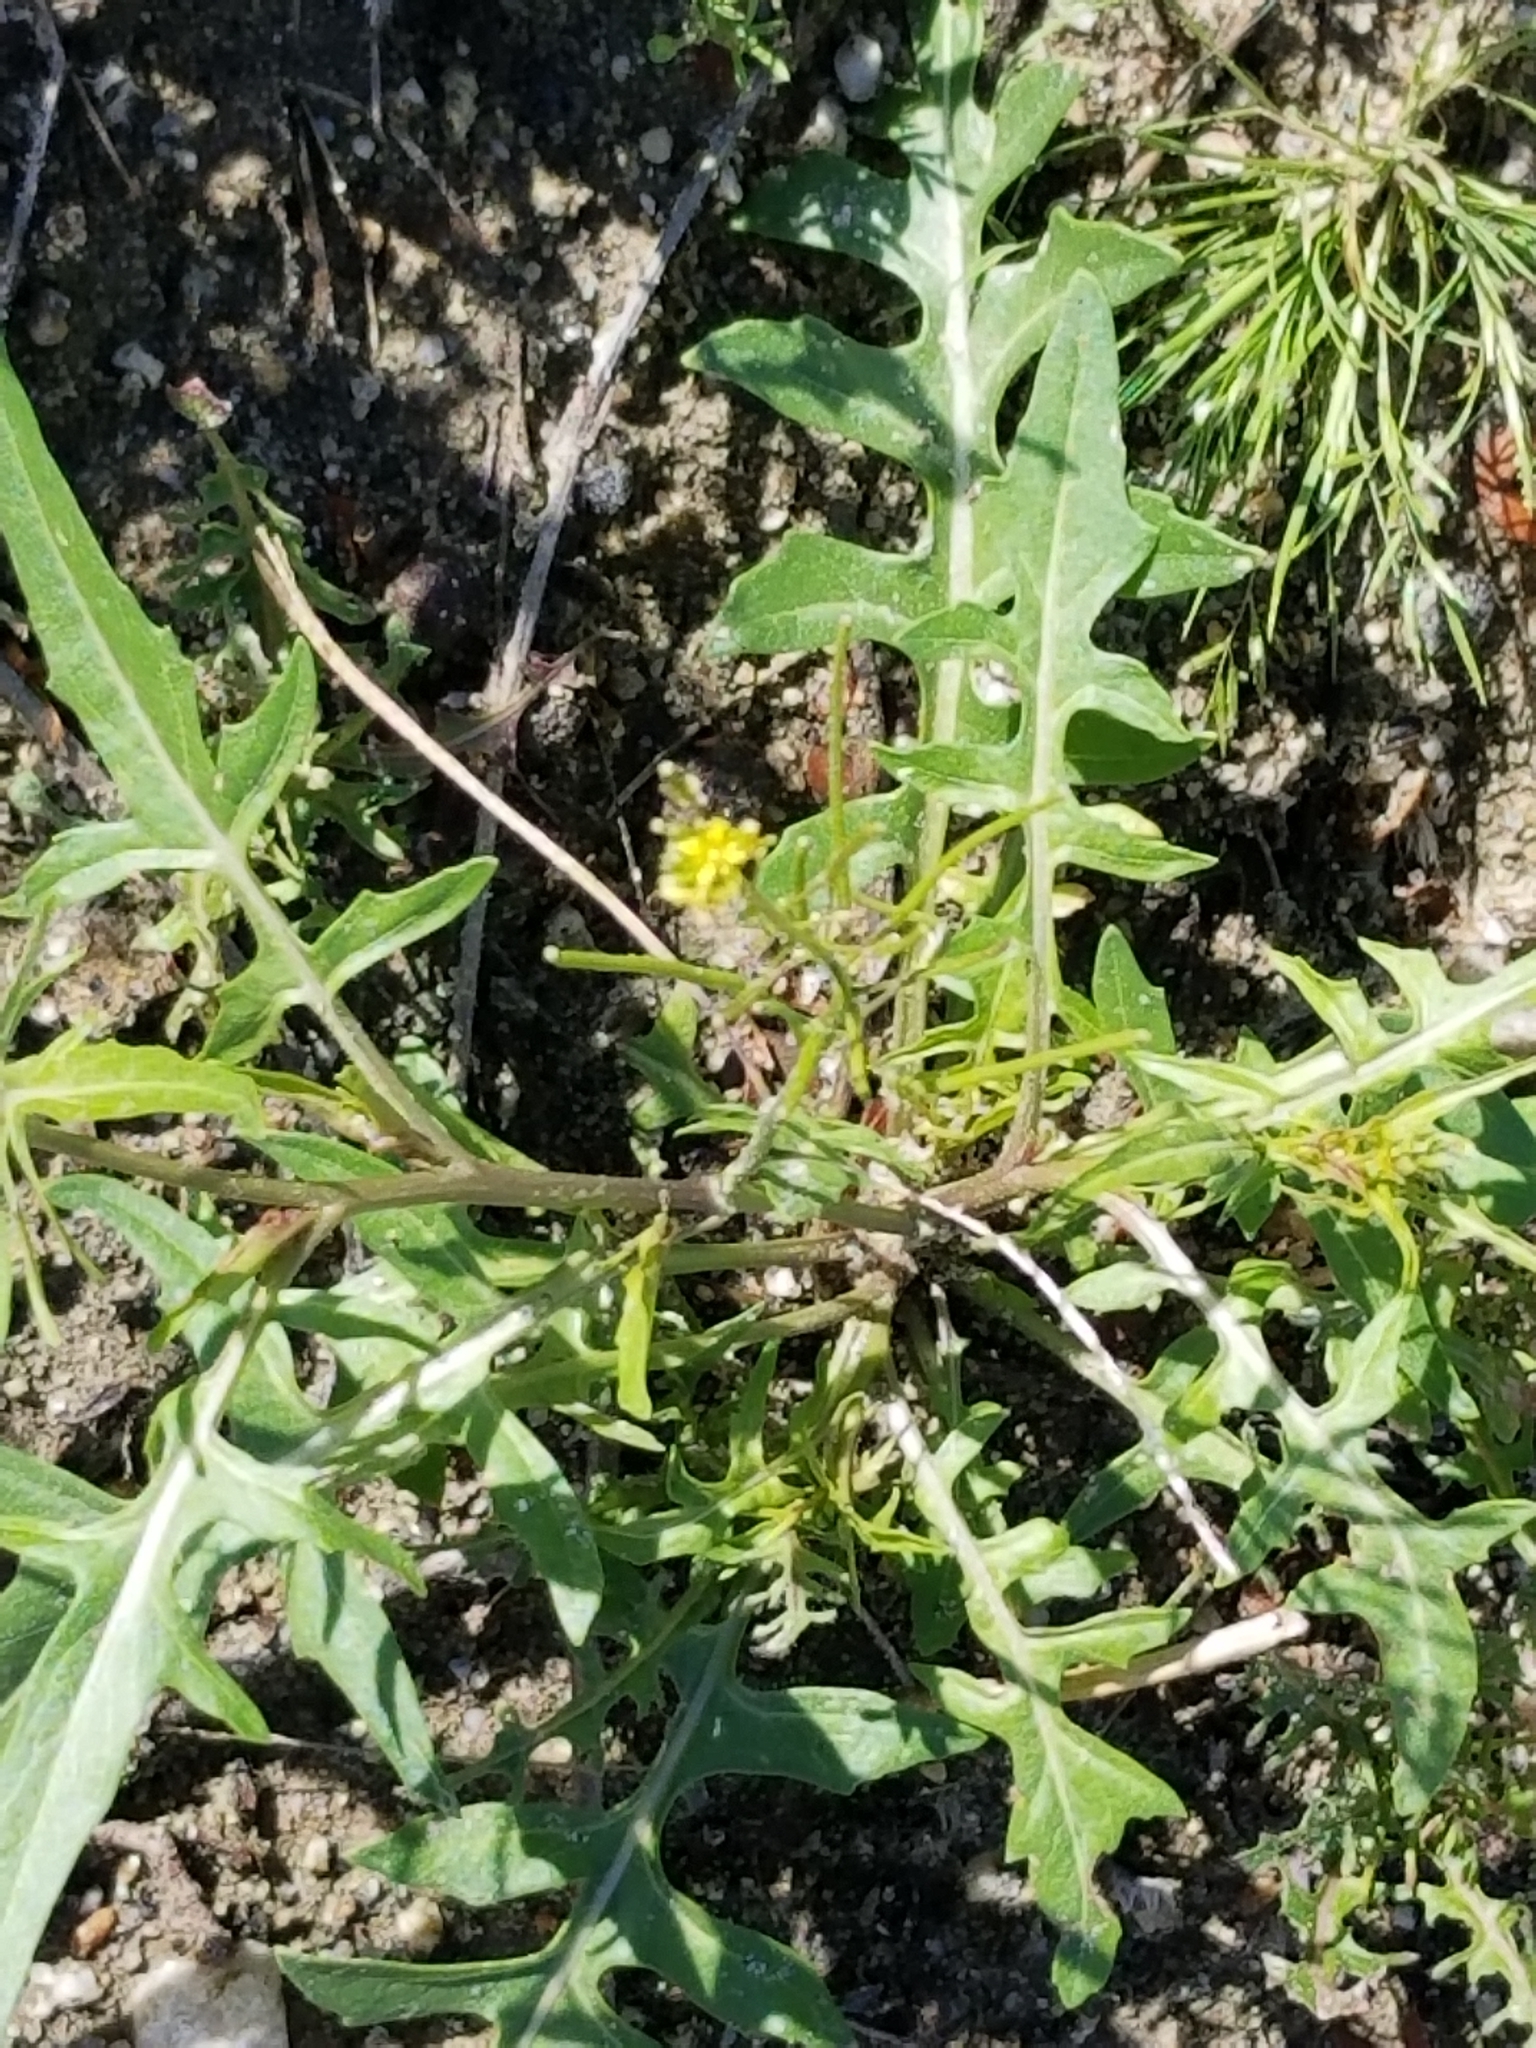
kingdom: Plantae
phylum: Tracheophyta
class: Magnoliopsida
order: Brassicales
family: Brassicaceae
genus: Sisymbrium
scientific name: Sisymbrium irio
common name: London rocket
